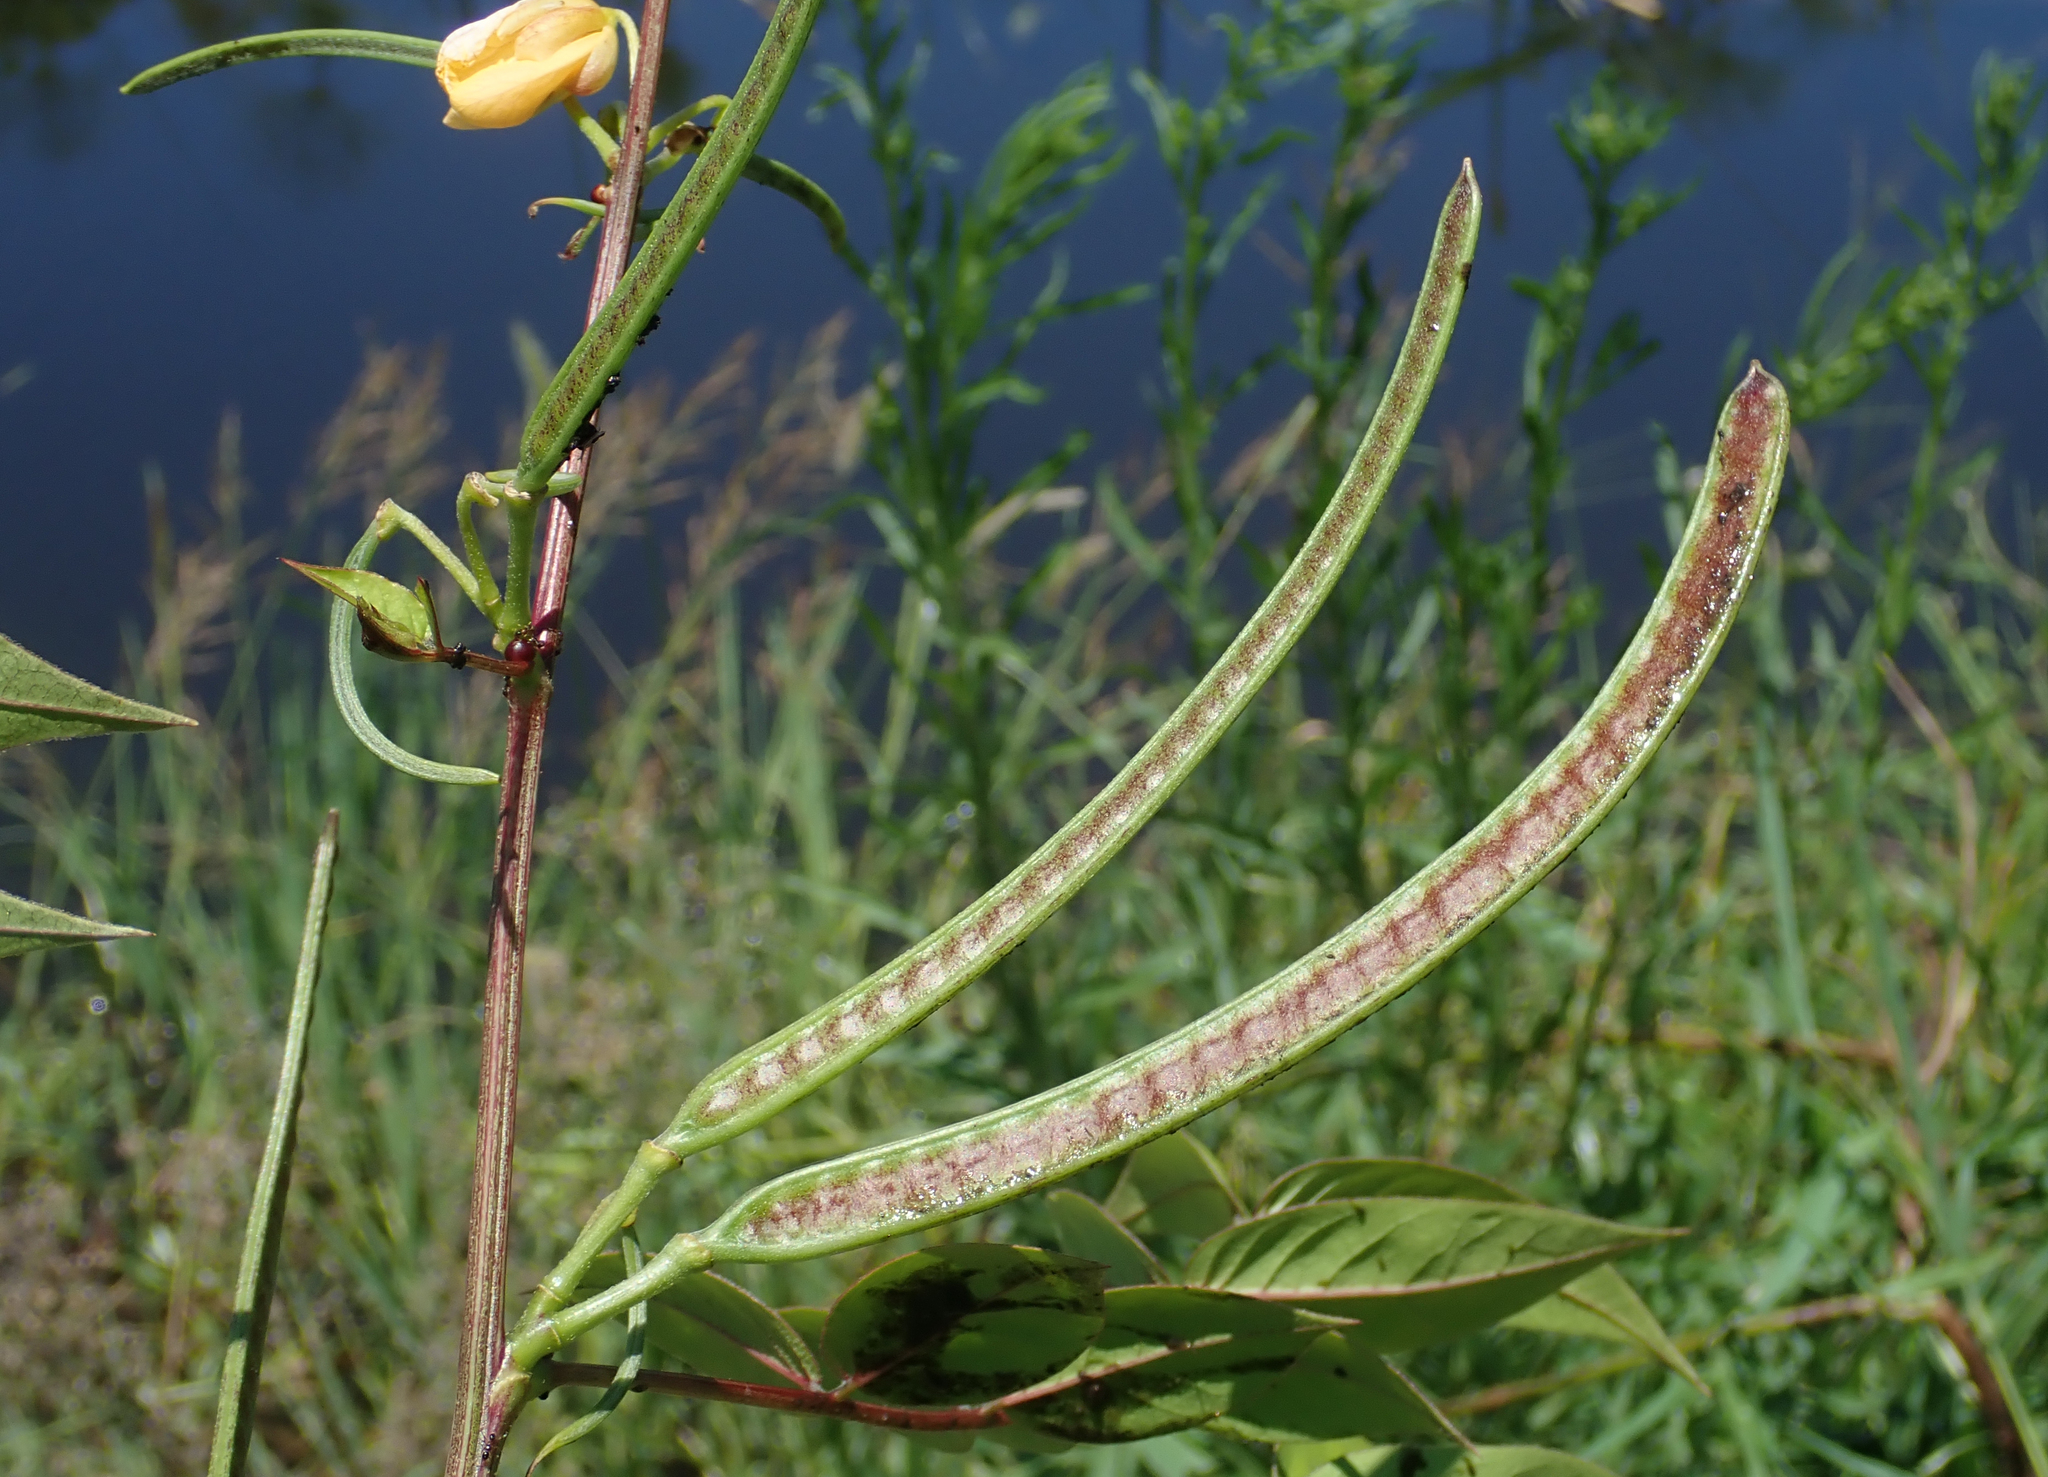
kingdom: Plantae
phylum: Tracheophyta
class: Magnoliopsida
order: Fabales
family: Fabaceae
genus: Senna
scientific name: Senna occidentalis
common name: Septicweed
